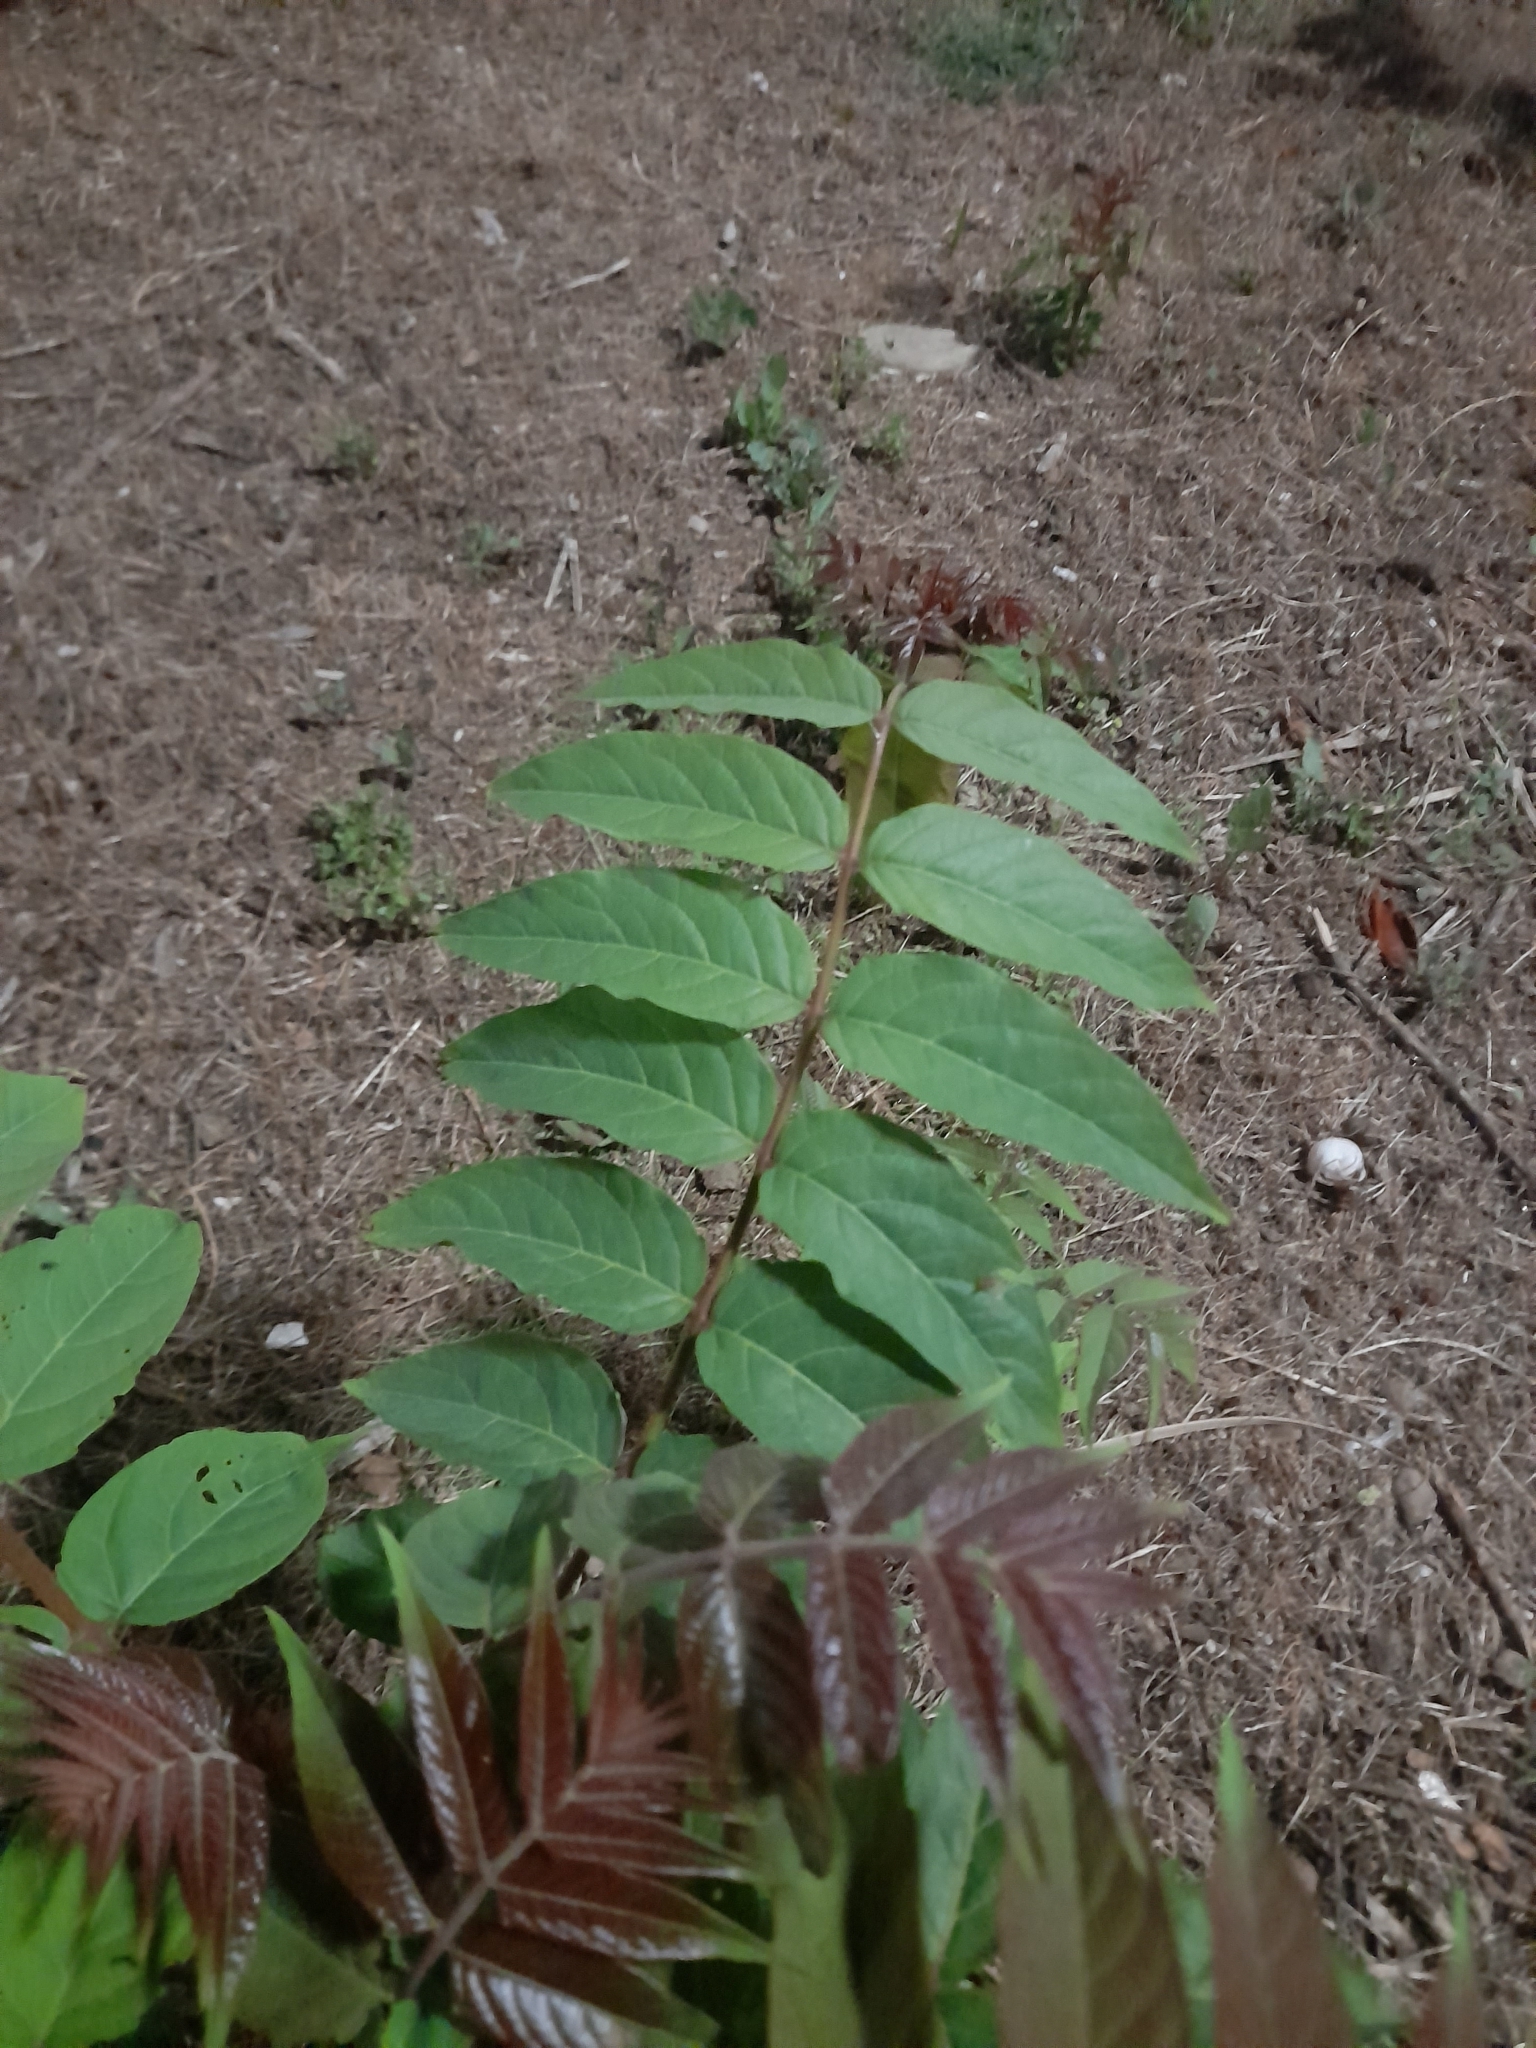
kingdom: Plantae
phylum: Tracheophyta
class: Magnoliopsida
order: Sapindales
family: Simaroubaceae
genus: Ailanthus
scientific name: Ailanthus altissima
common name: Tree-of-heaven
